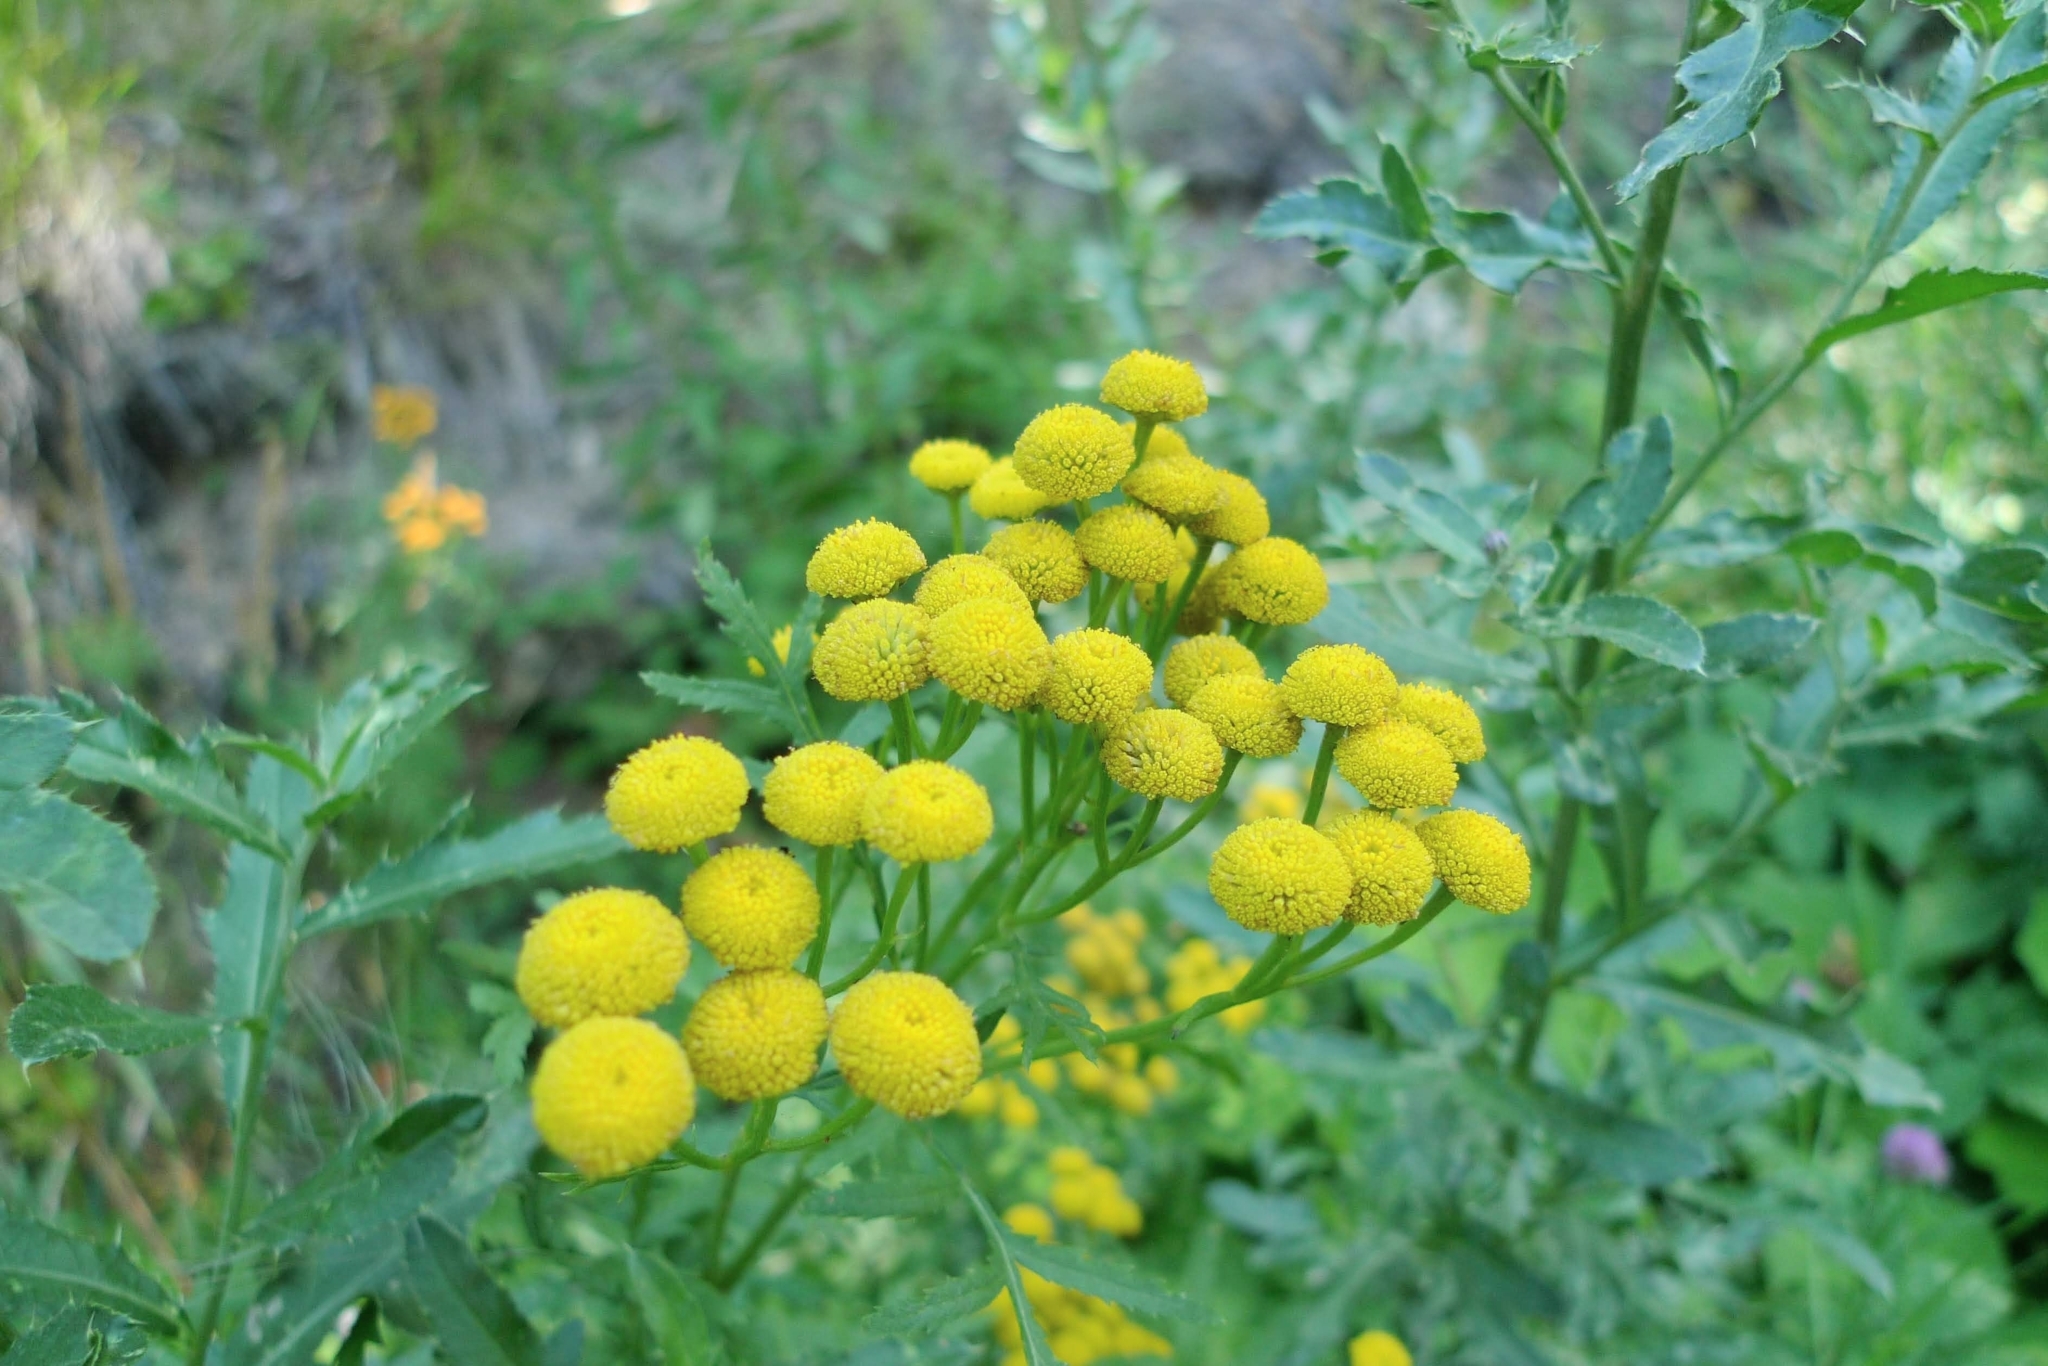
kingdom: Plantae
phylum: Tracheophyta
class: Magnoliopsida
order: Asterales
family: Asteraceae
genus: Tanacetum
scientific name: Tanacetum vulgare
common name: Common tansy
